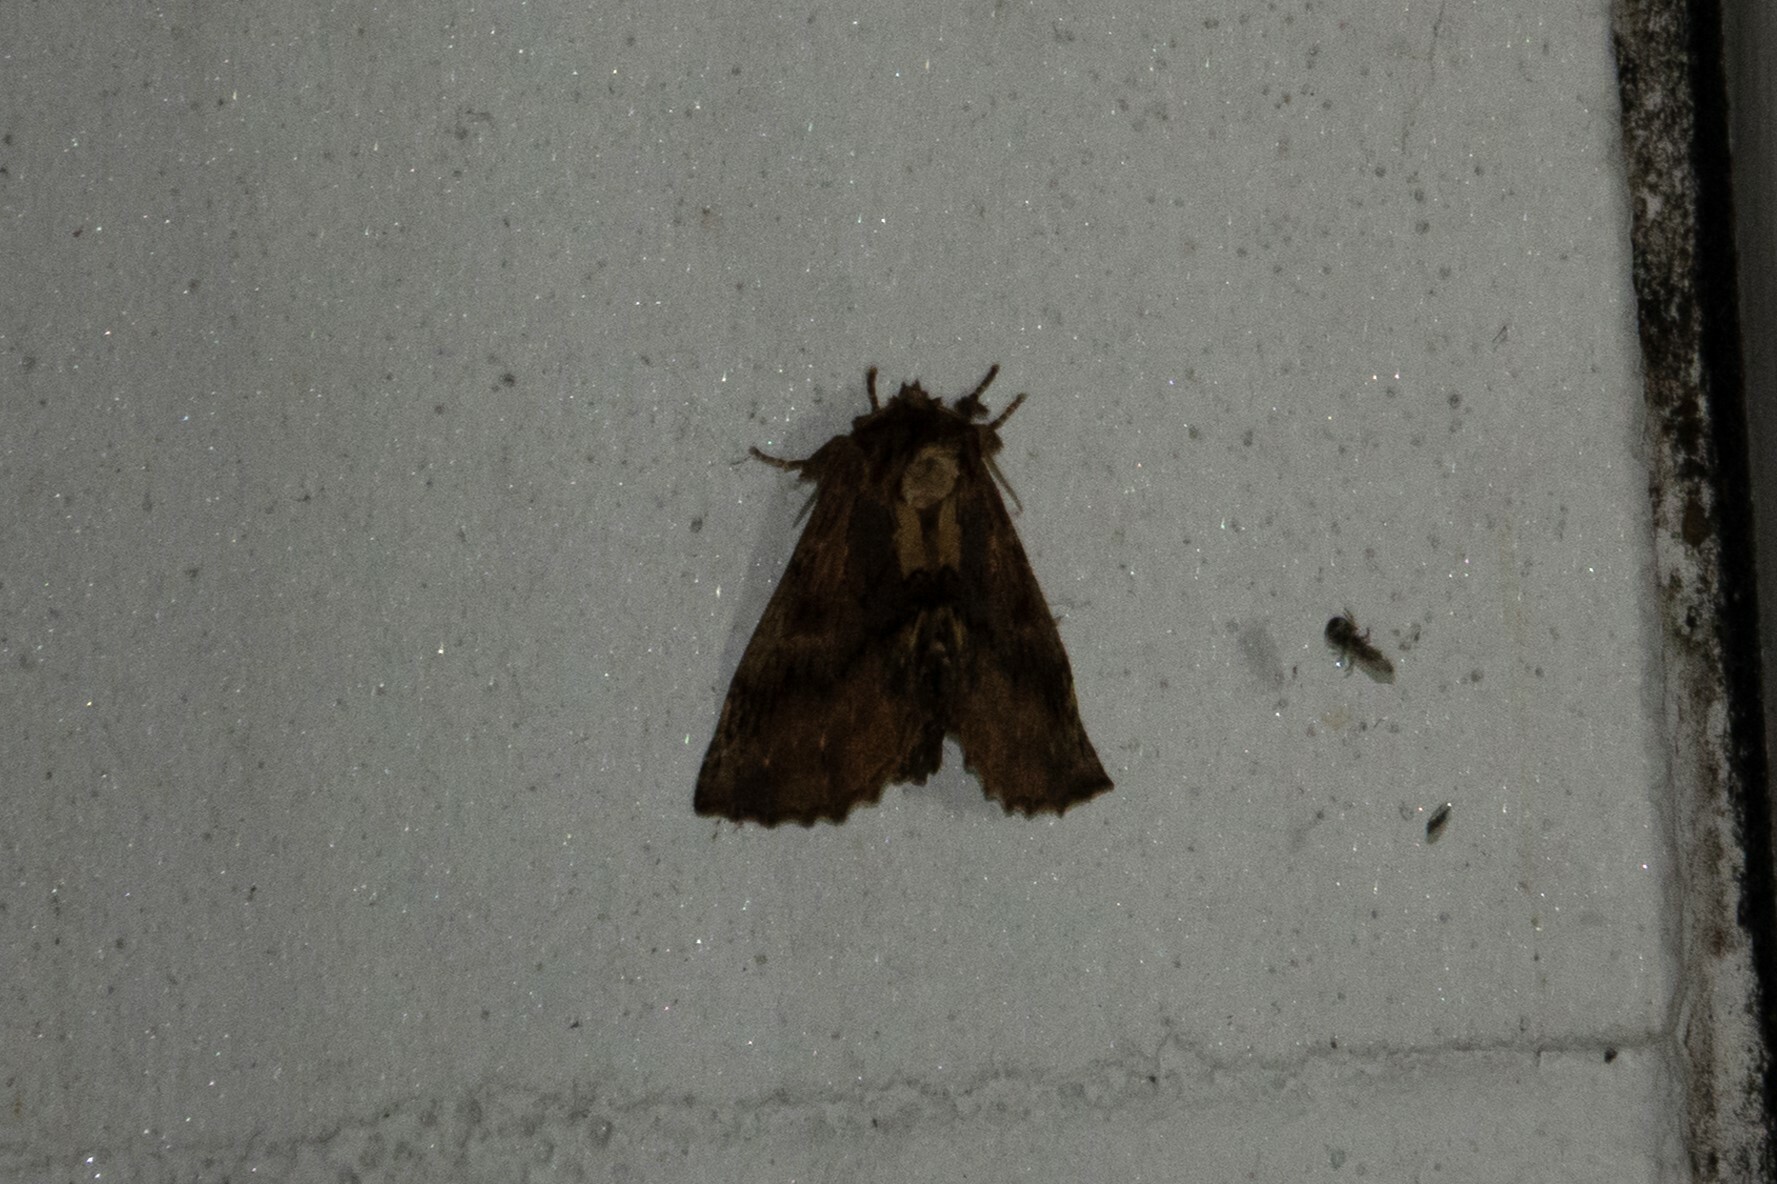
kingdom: Animalia
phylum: Arthropoda
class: Insecta
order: Lepidoptera
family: Notodontidae
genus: Ptilodon
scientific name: Ptilodon capucina
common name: Coxcomb prominent
